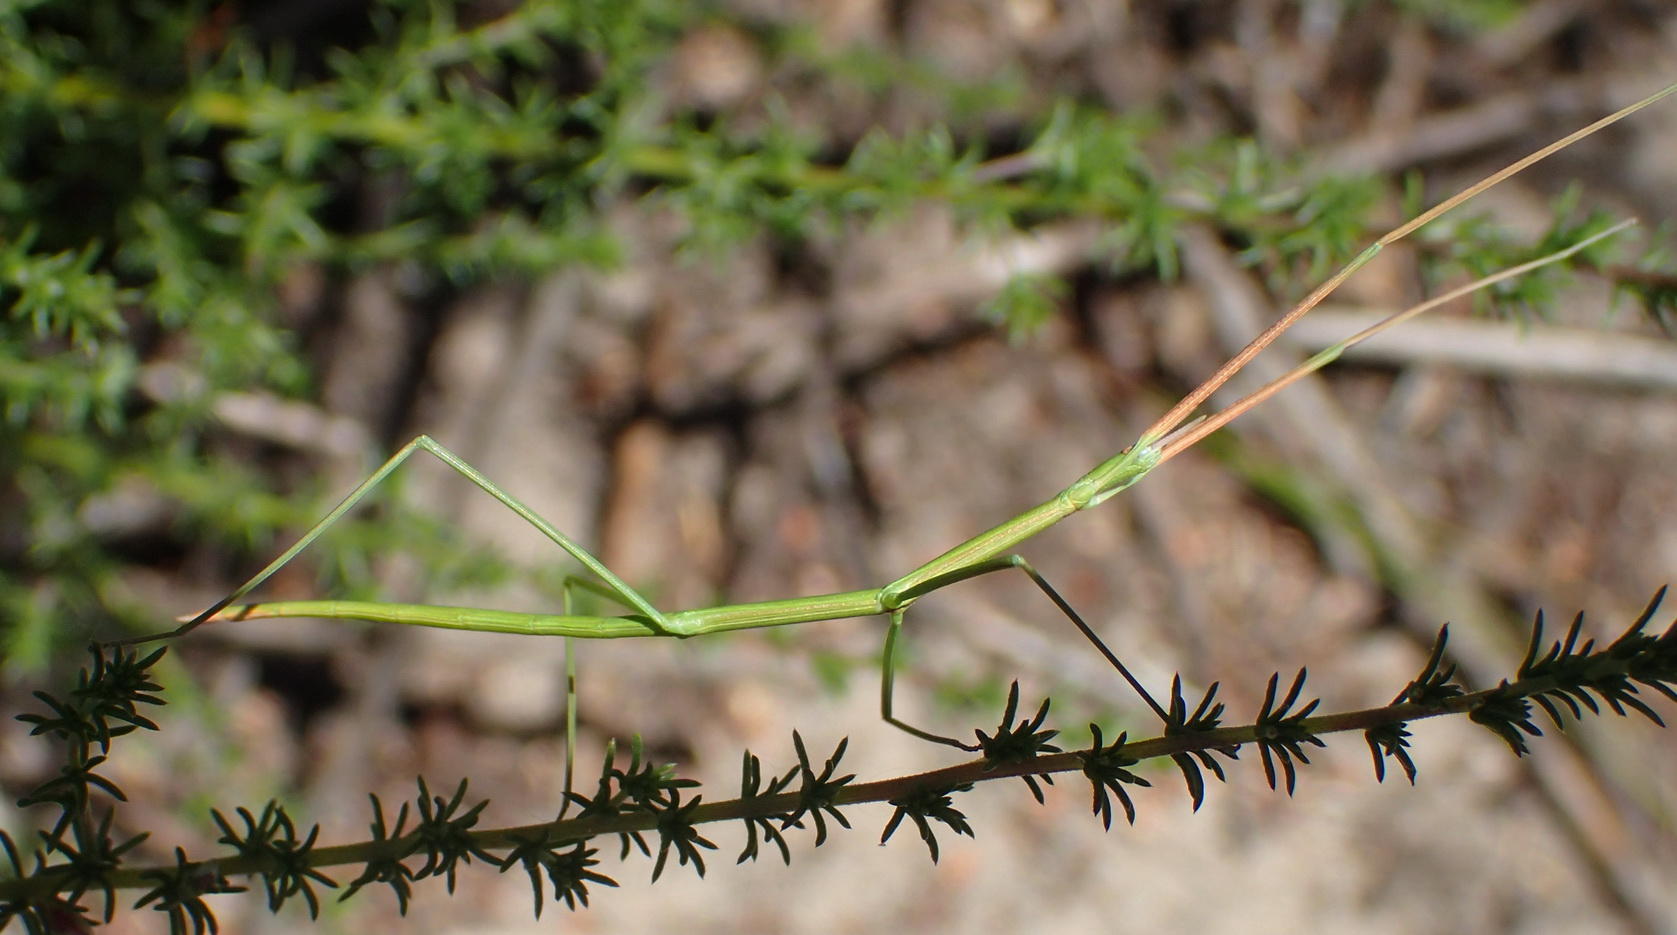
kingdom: Animalia
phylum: Arthropoda
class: Insecta
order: Phasmida
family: Bacillidae
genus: Phalces
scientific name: Phalces brevis
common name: Cape stick insect
